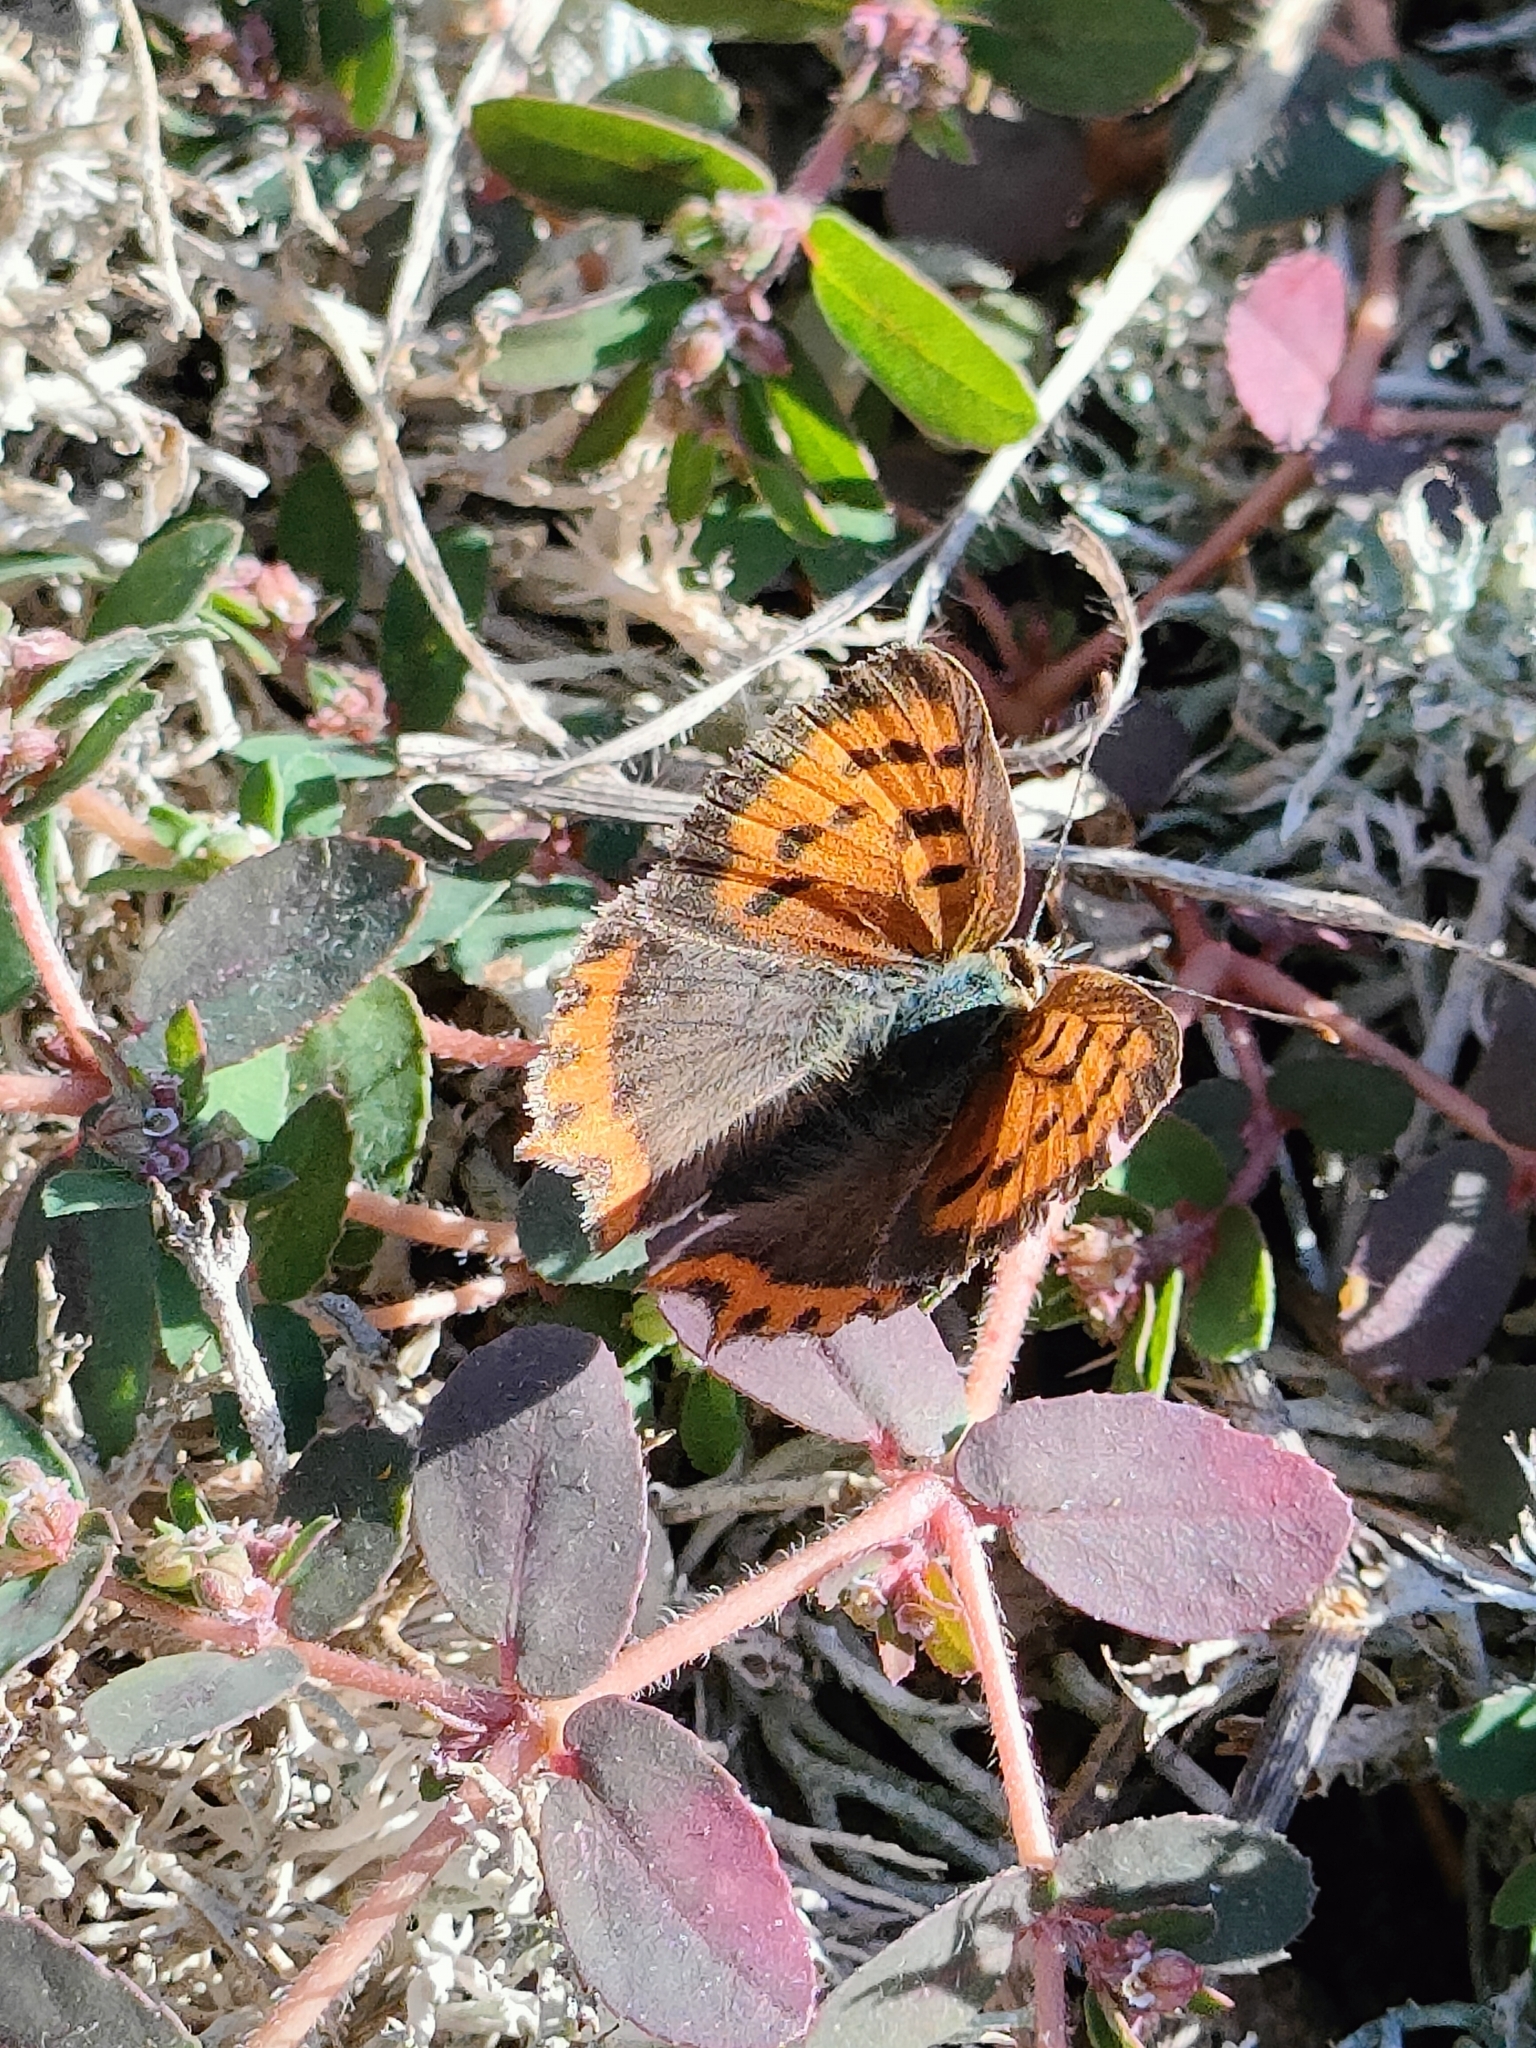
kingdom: Animalia
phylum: Arthropoda
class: Insecta
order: Lepidoptera
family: Lycaenidae
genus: Lycaena
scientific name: Lycaena phlaeas
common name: Small copper
